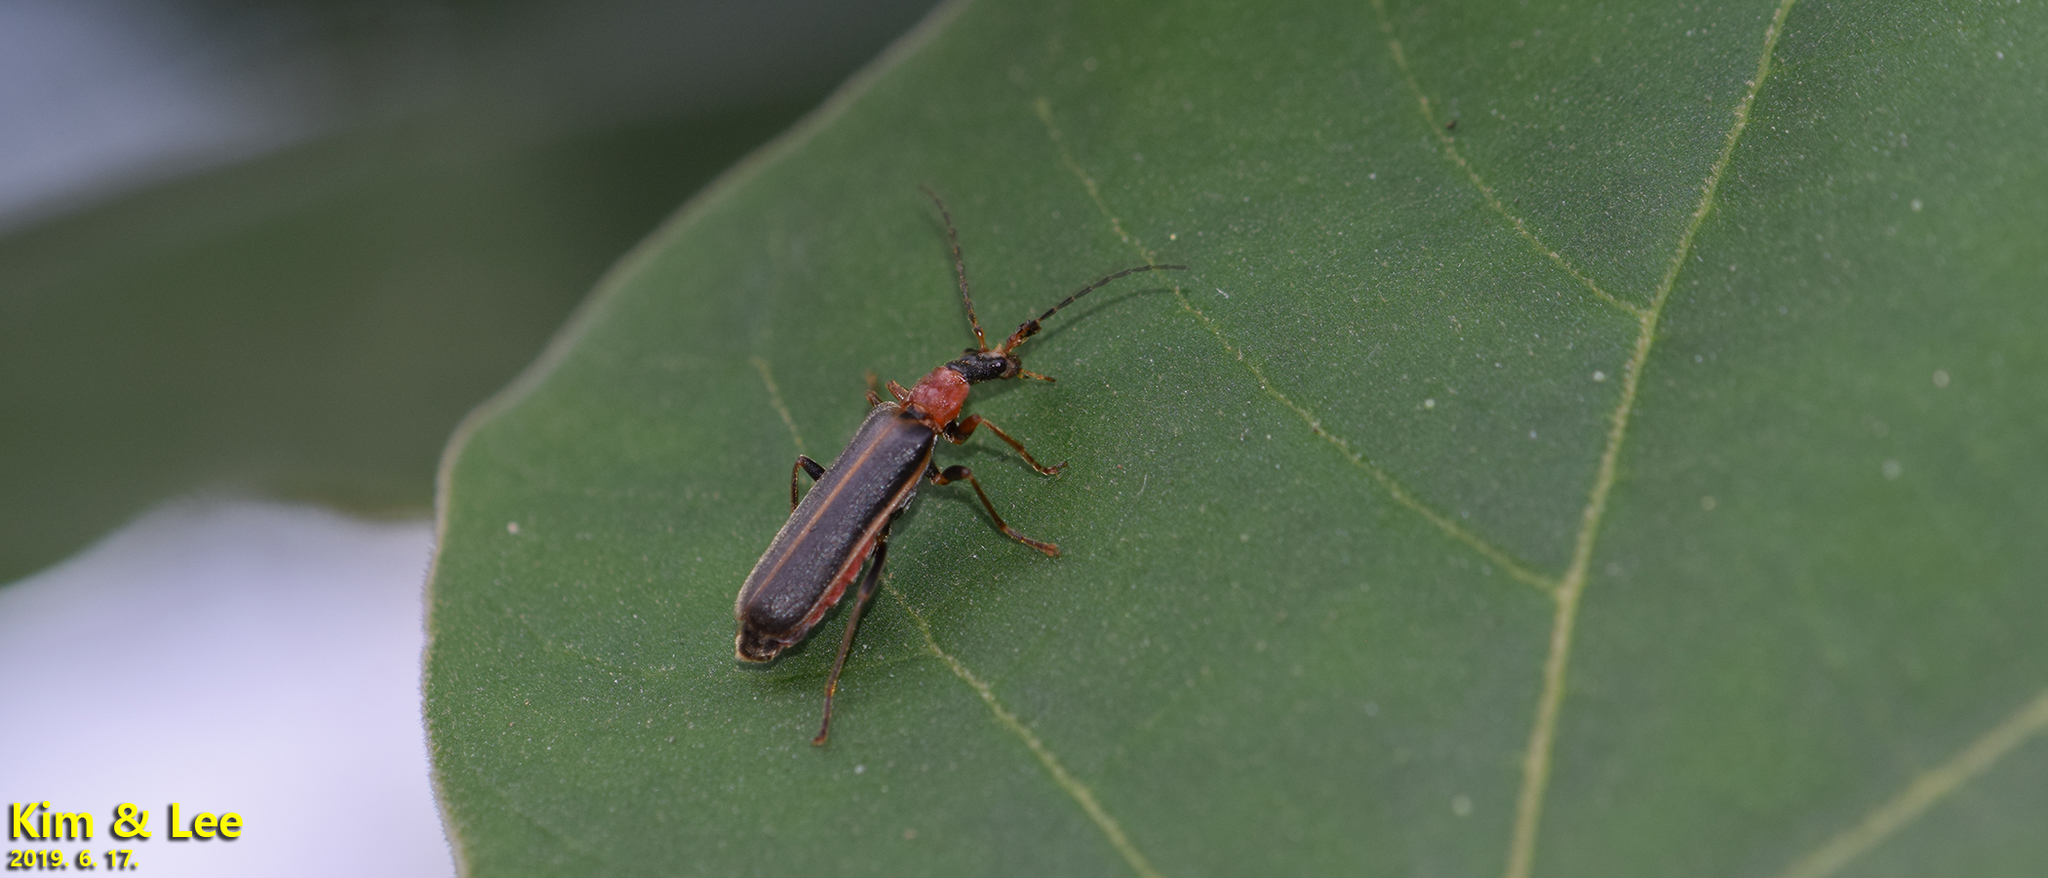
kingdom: Animalia
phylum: Arthropoda
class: Insecta
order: Coleoptera
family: Cantharidae
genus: Hatchiana
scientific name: Hatchiana glochidiatus
